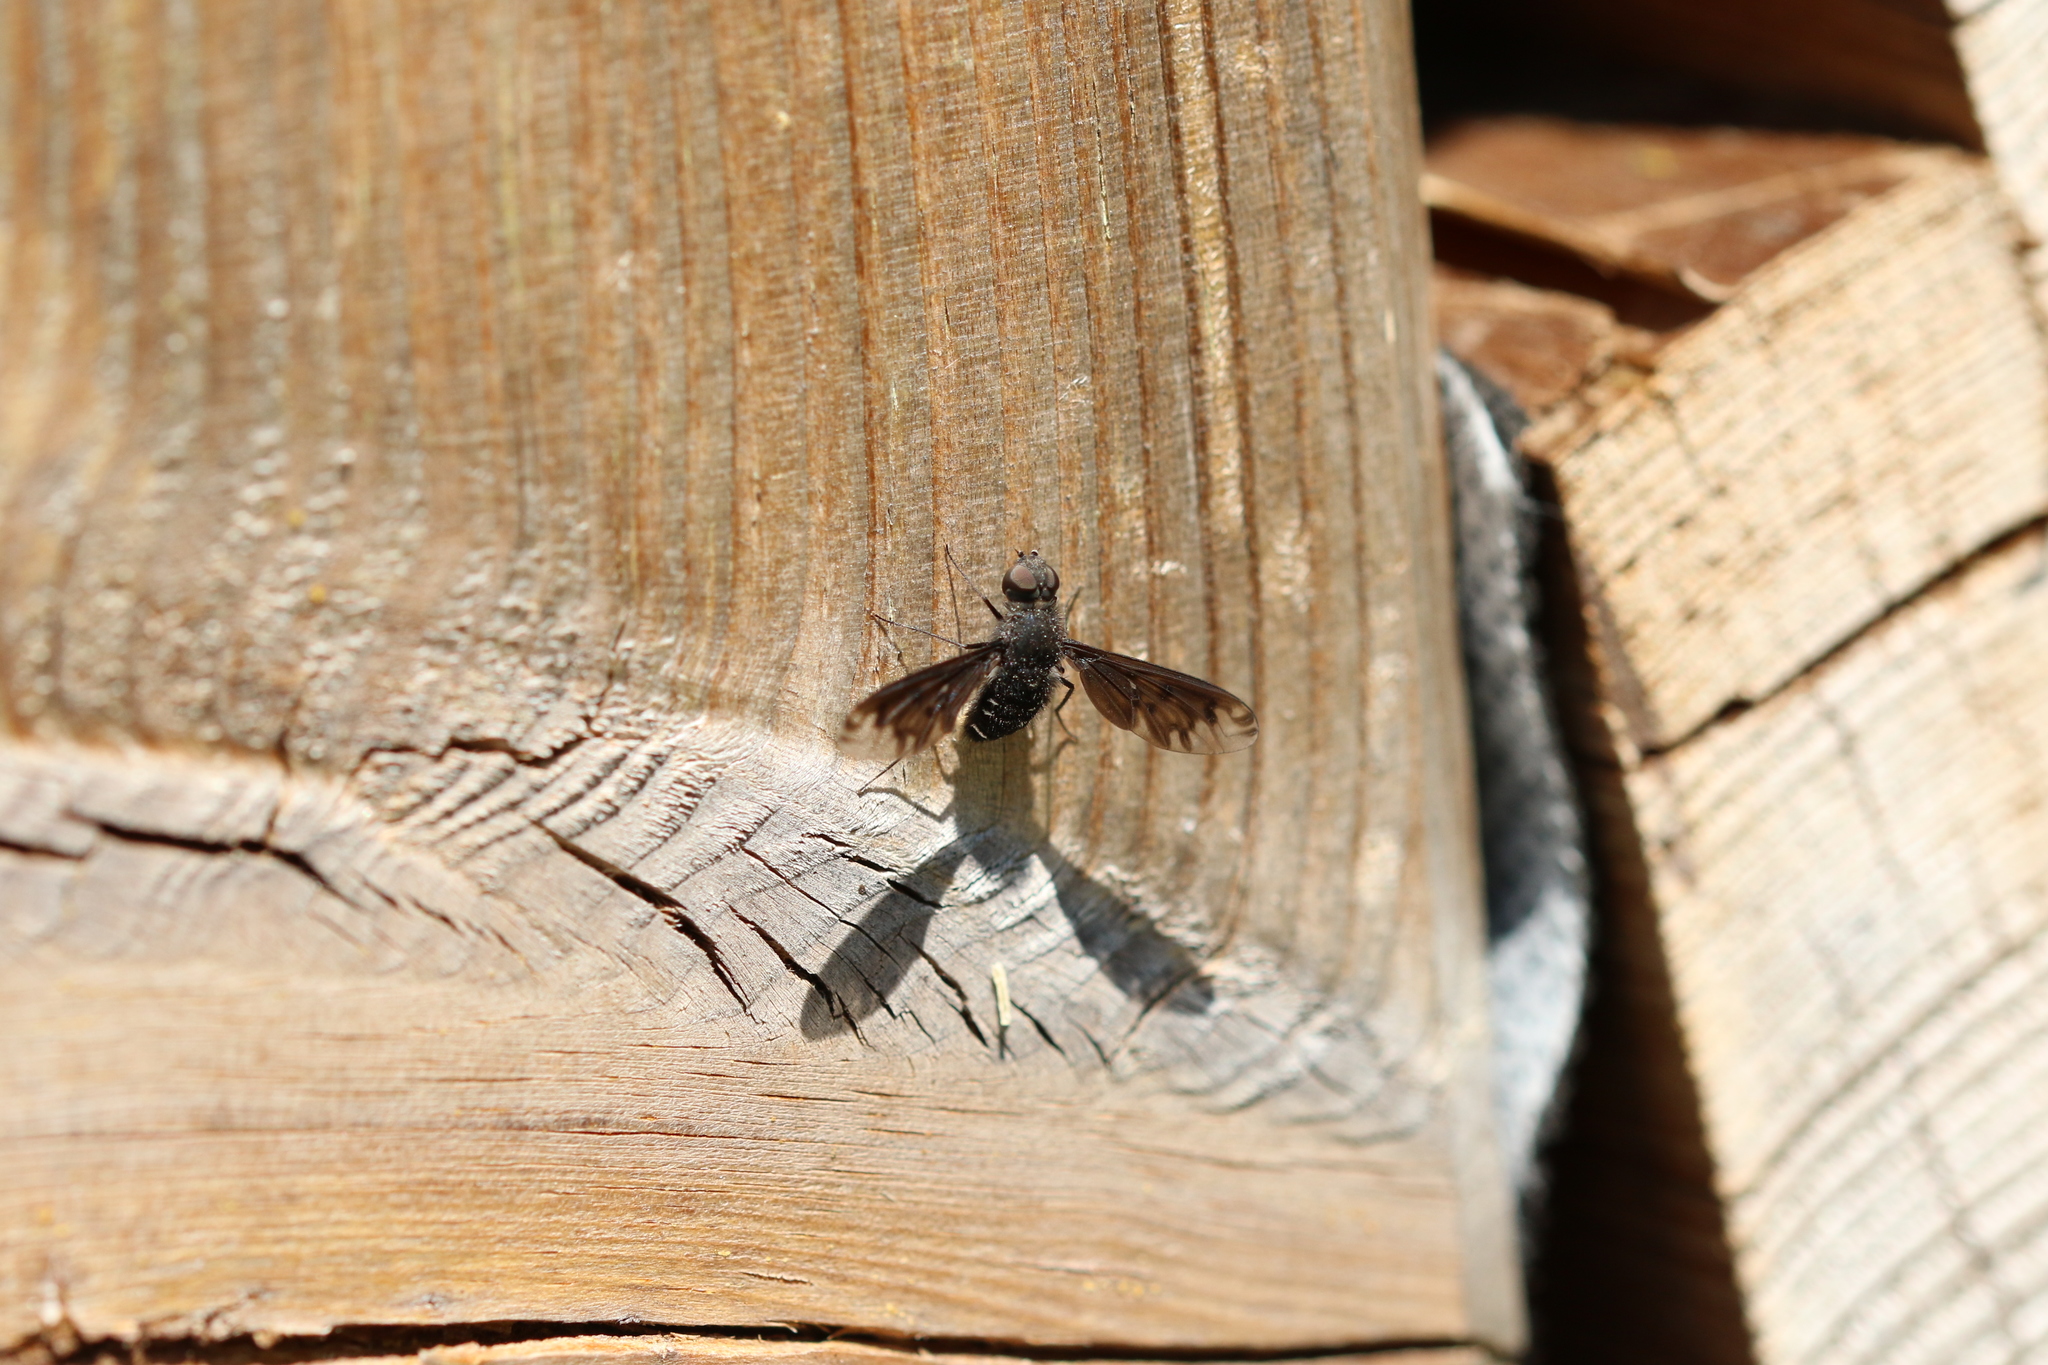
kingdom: Animalia
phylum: Arthropoda
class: Insecta
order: Diptera
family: Bombyliidae
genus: Anthrax
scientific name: Anthrax anthrax
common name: Anthracite bee-fly
